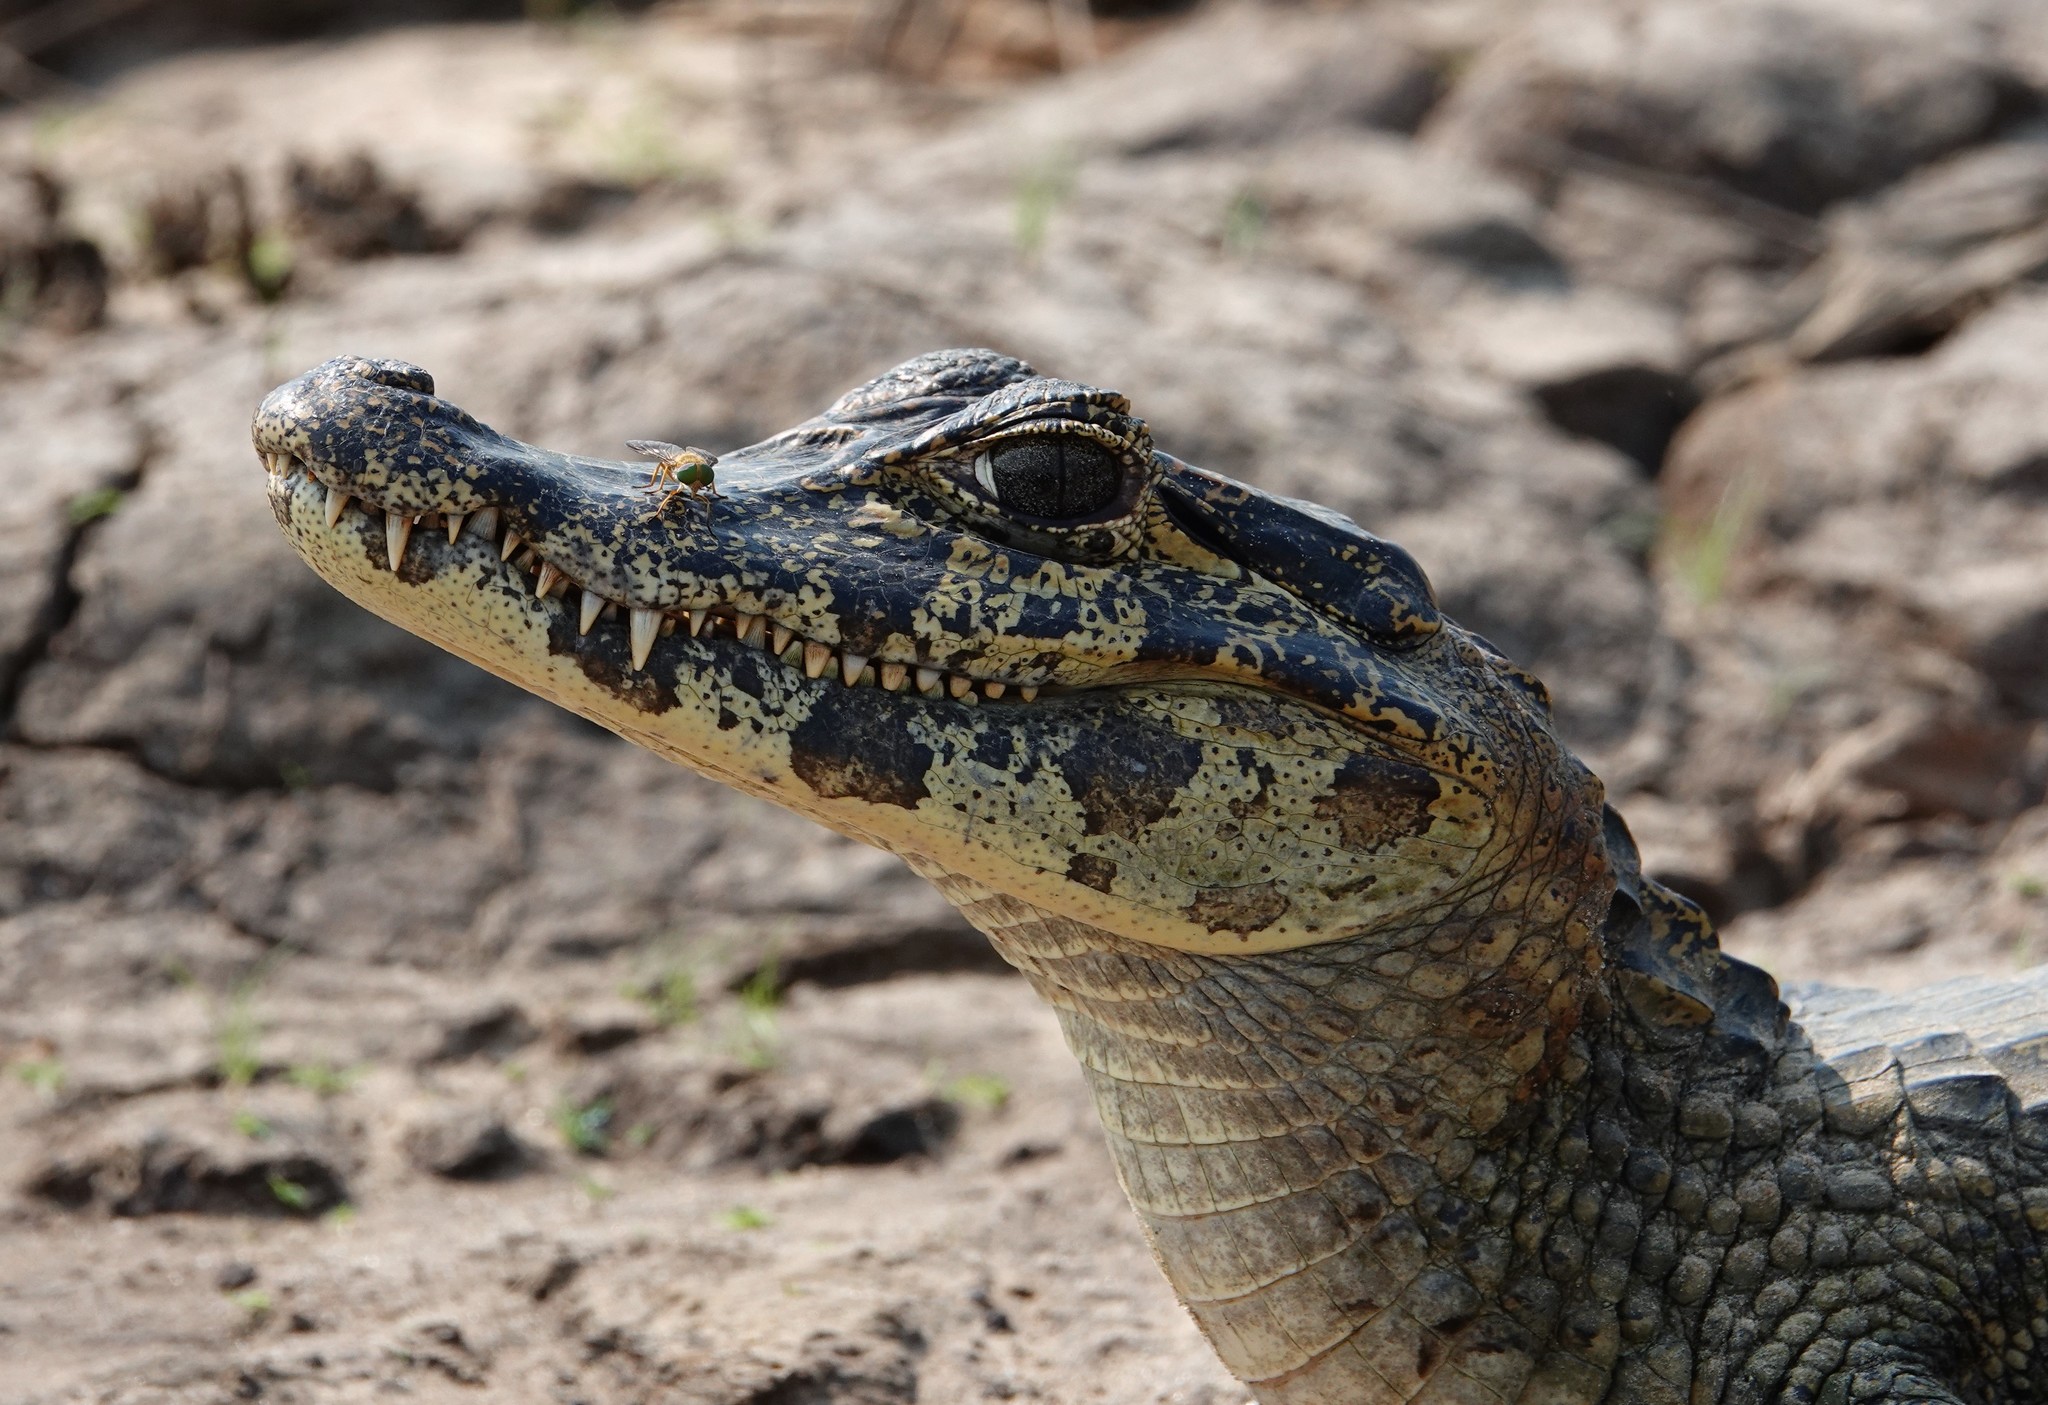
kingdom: Animalia
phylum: Chordata
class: Crocodylia
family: Alligatoridae
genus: Caiman
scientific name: Caiman yacare
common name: Yacare caiman
